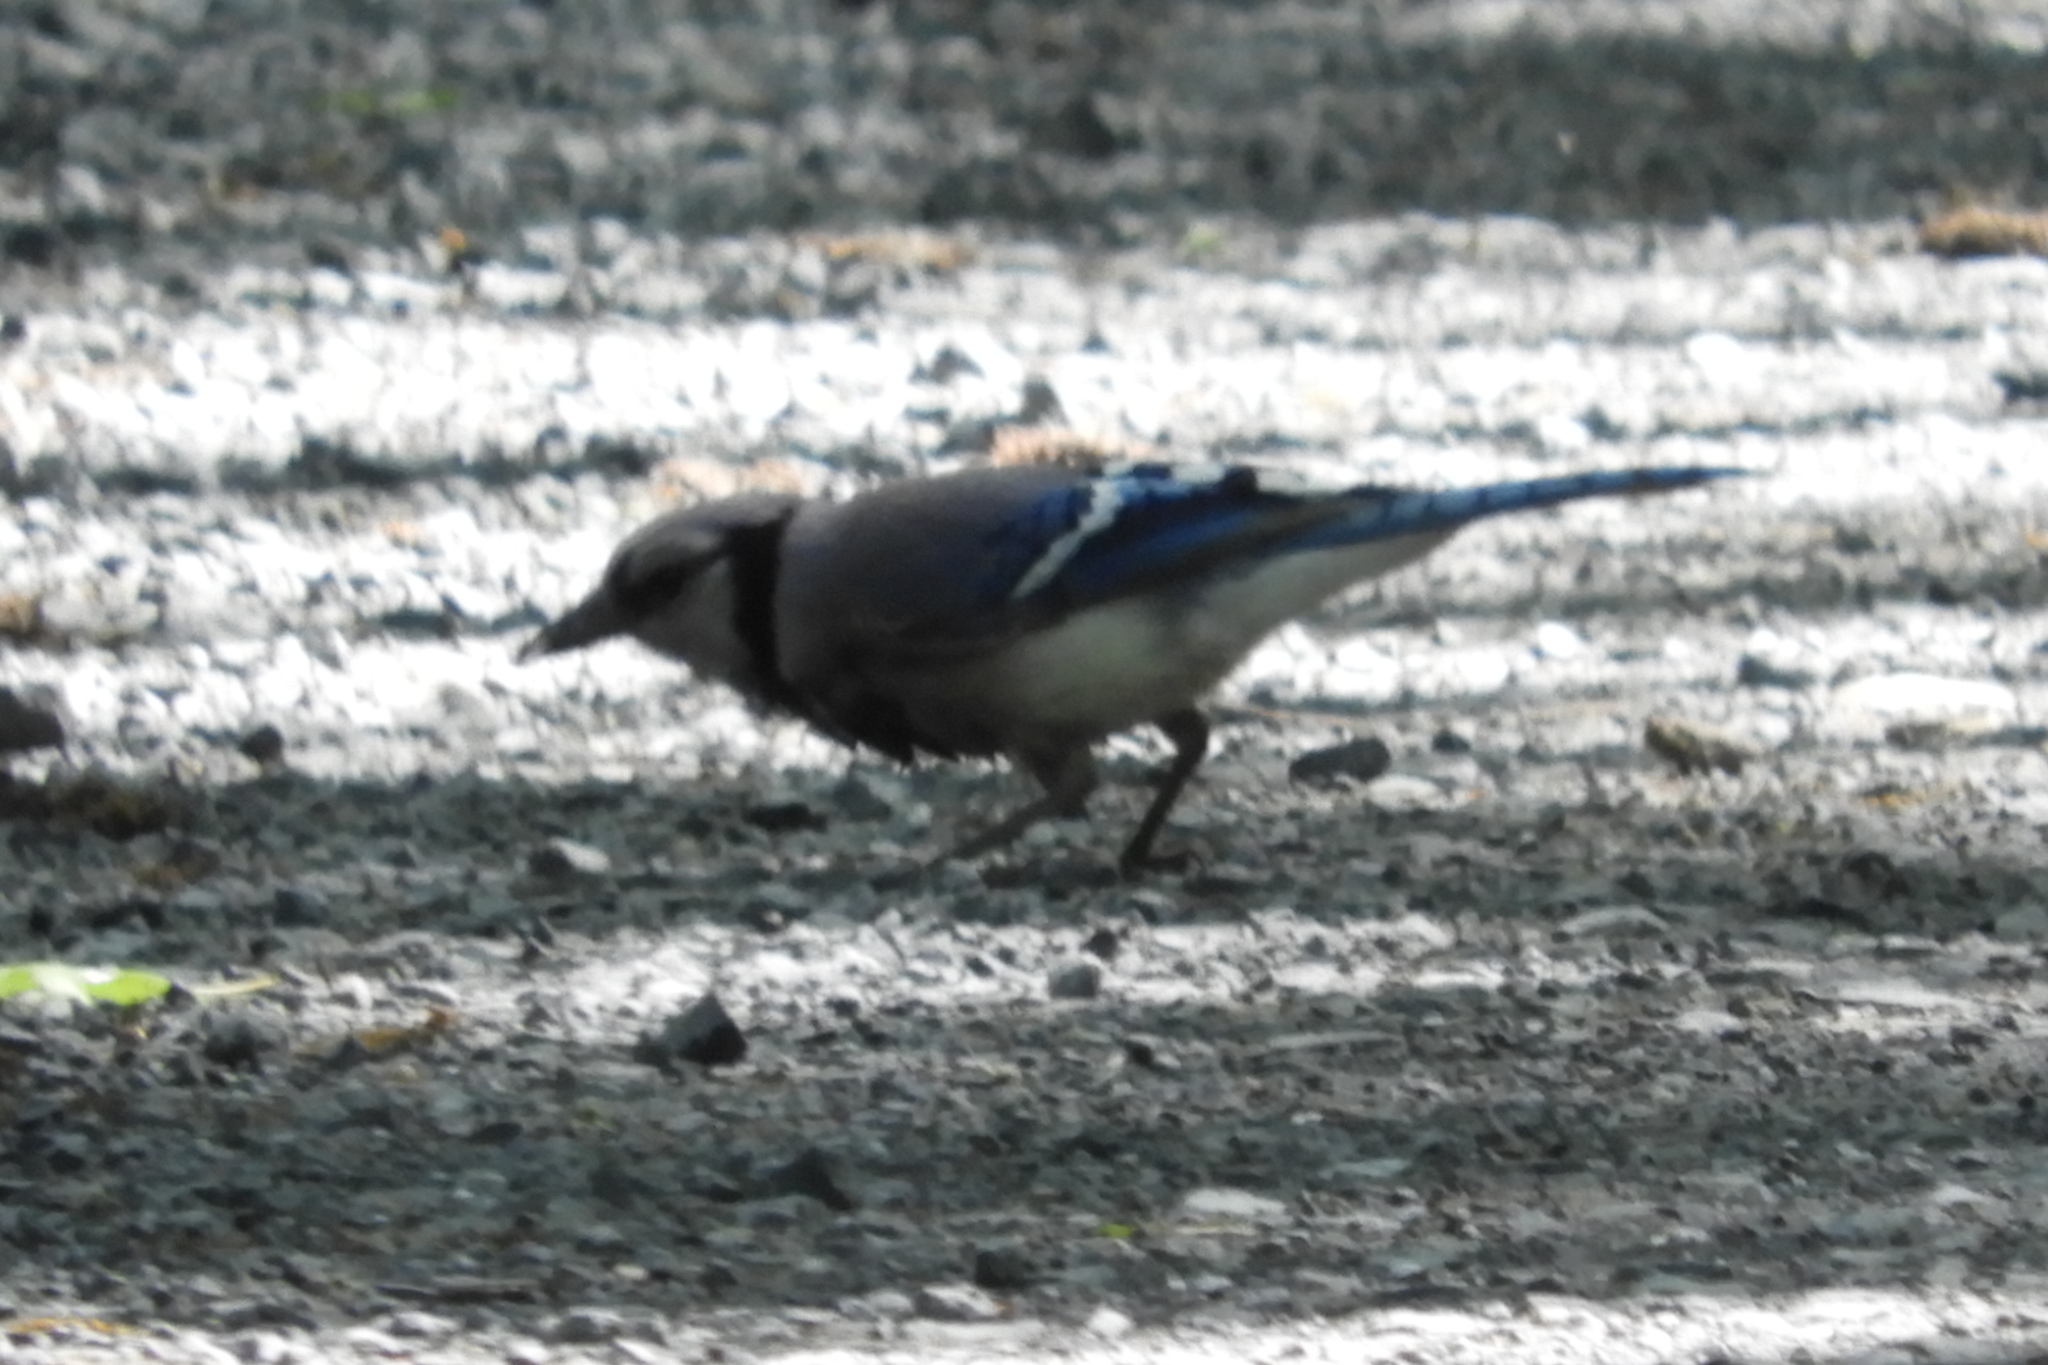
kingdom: Animalia
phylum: Chordata
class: Aves
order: Passeriformes
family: Corvidae
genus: Cyanocitta
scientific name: Cyanocitta cristata
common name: Blue jay
